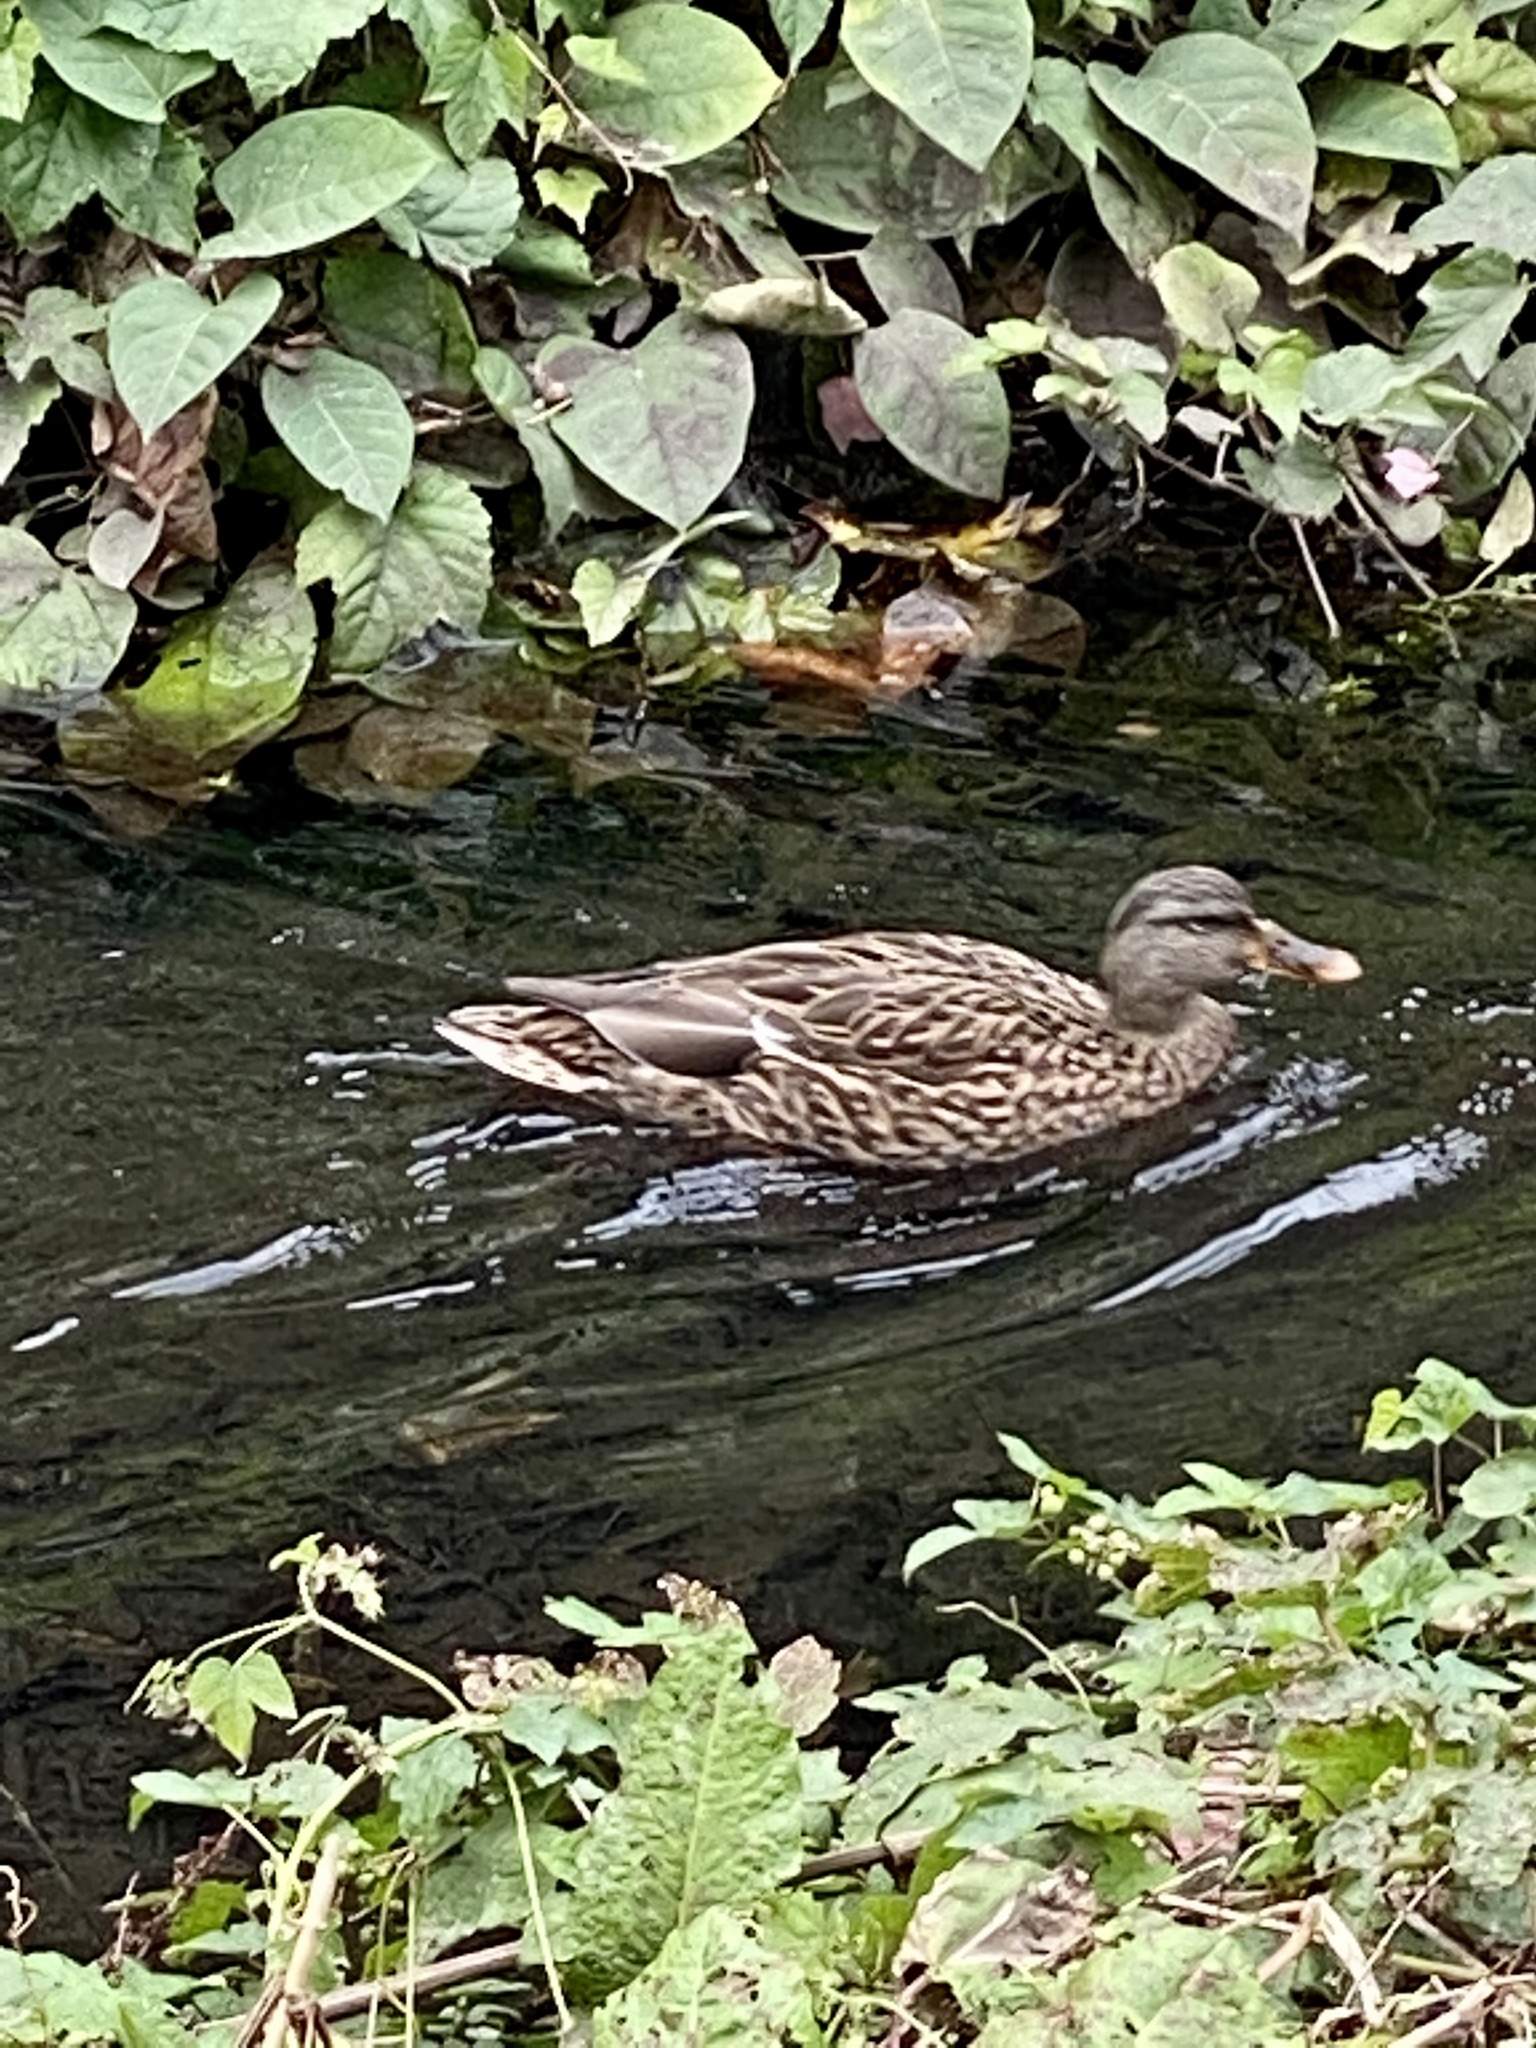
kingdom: Animalia
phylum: Chordata
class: Aves
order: Anseriformes
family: Anatidae
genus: Anas
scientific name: Anas platyrhynchos
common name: Mallard
